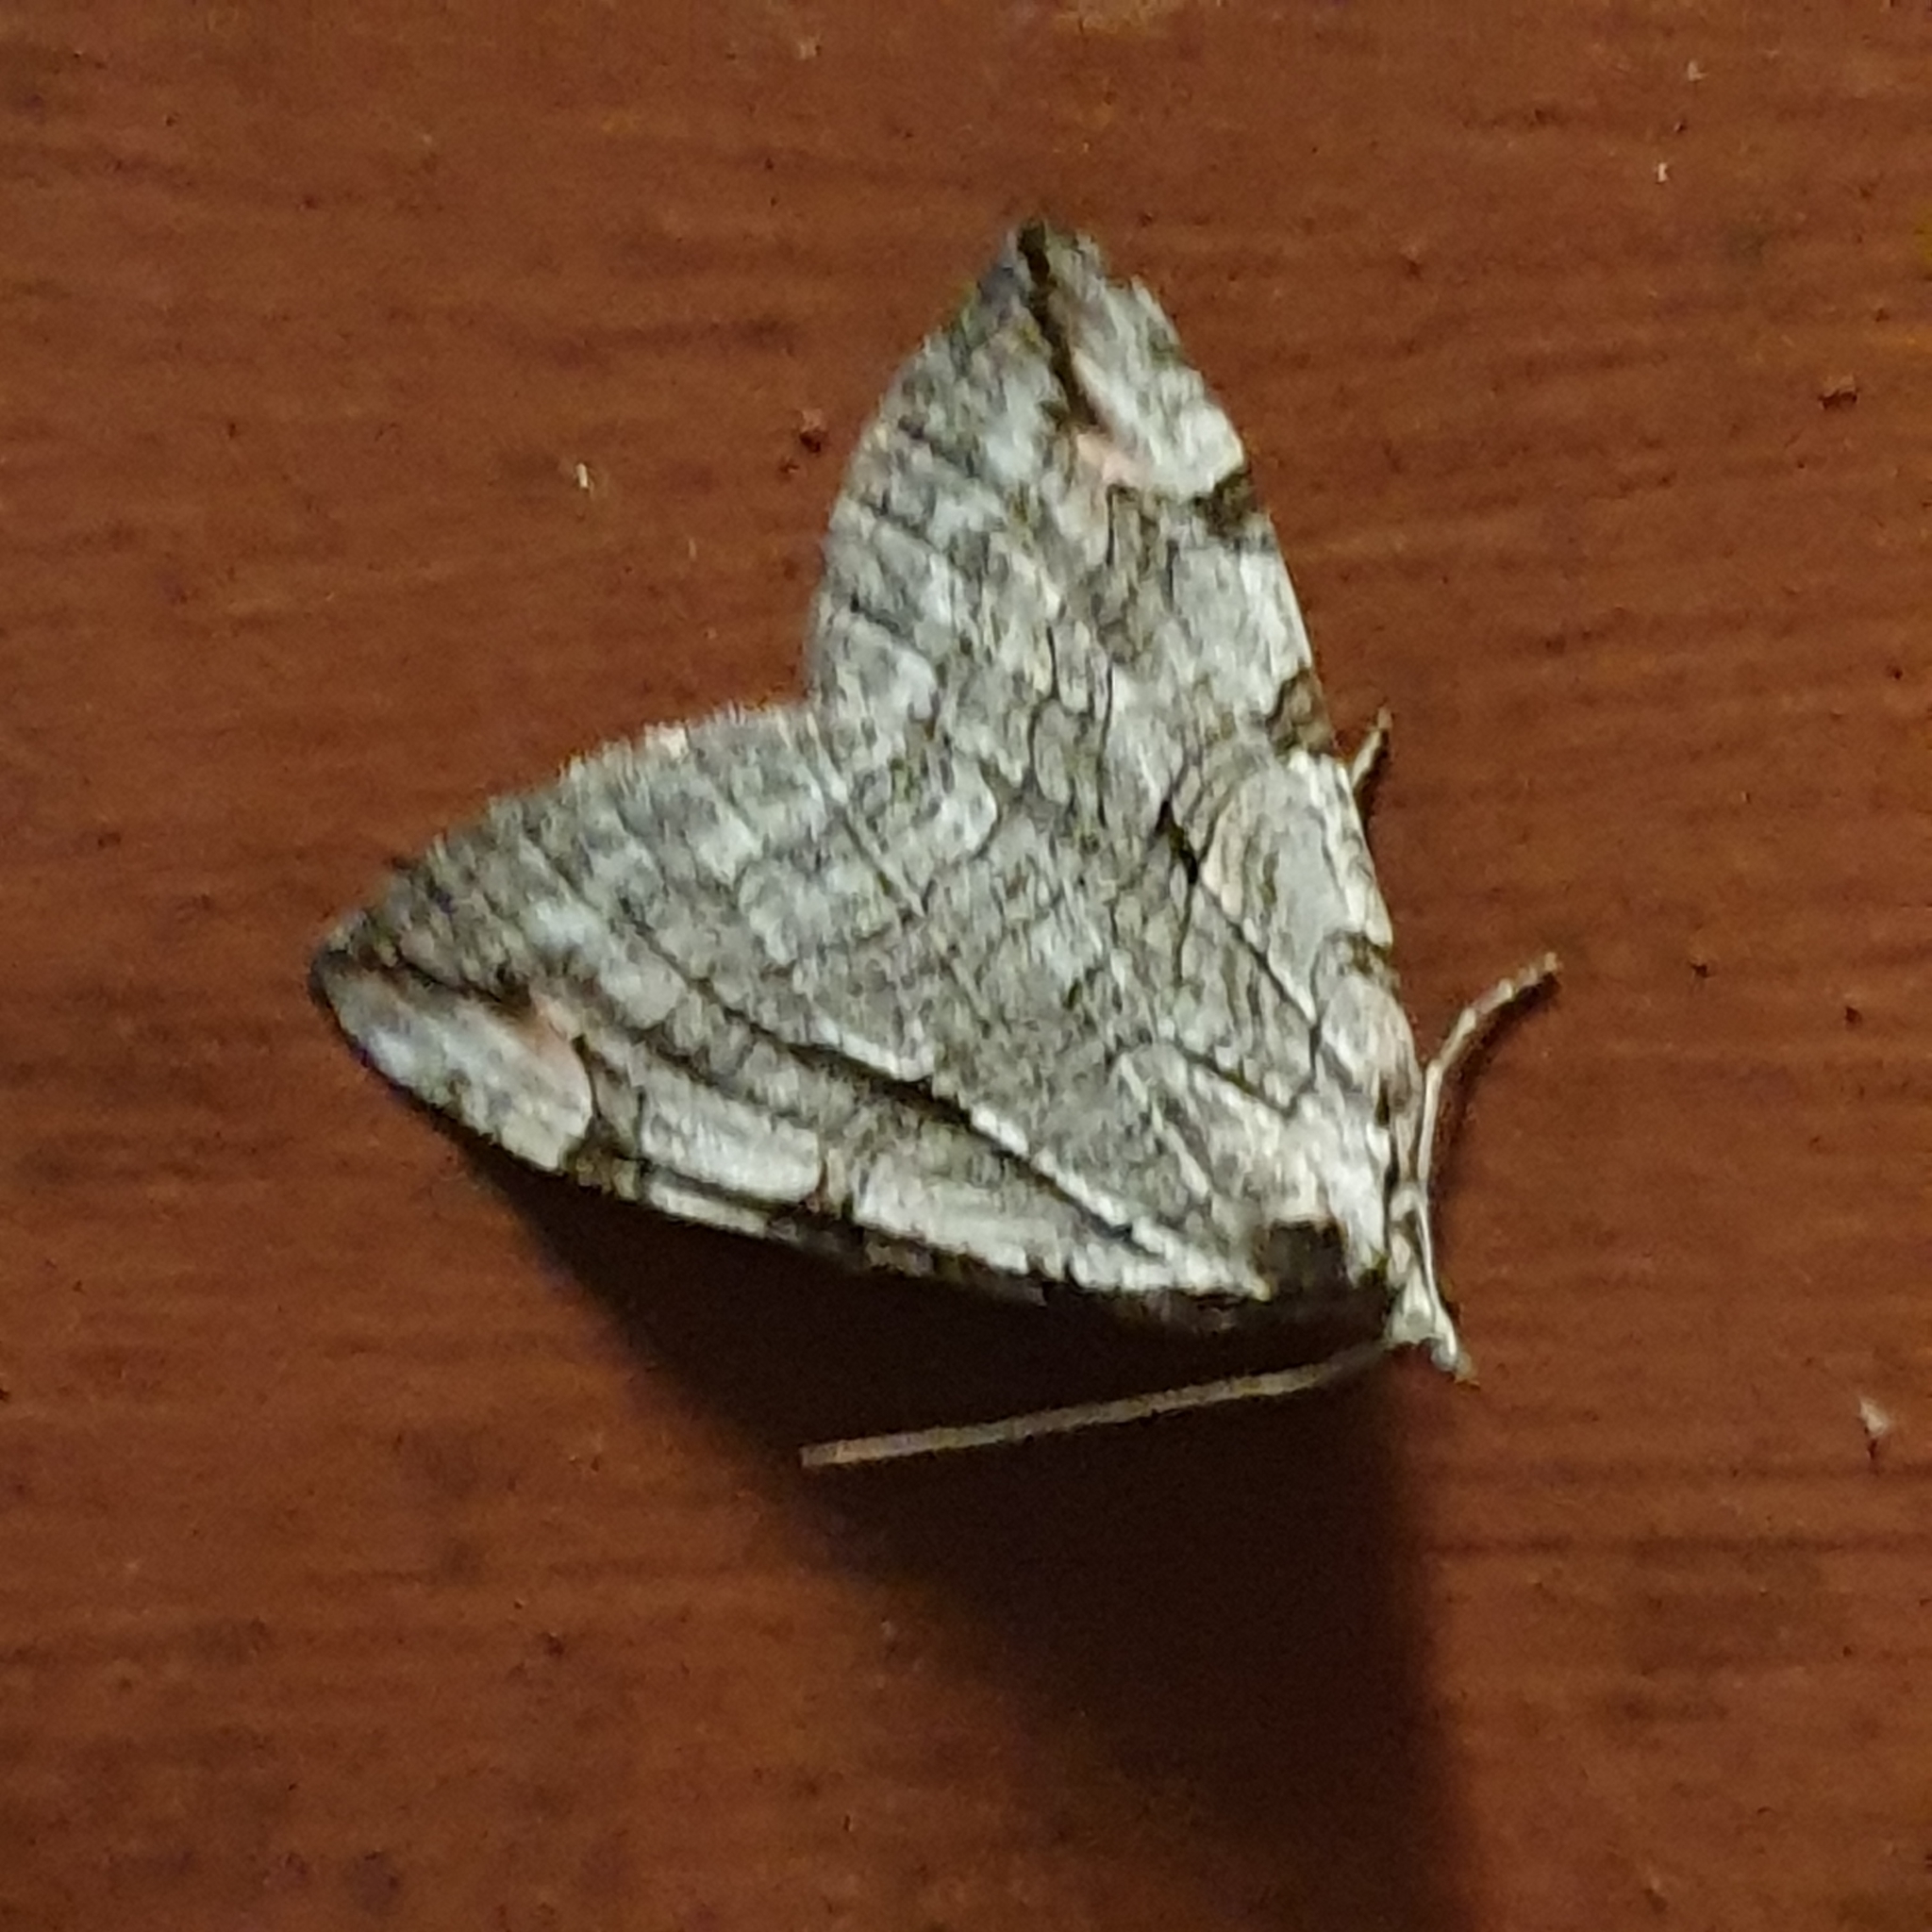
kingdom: Animalia
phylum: Arthropoda
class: Insecta
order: Lepidoptera
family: Geometridae
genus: Aplocera
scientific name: Aplocera plagiata
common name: Treble-bar
